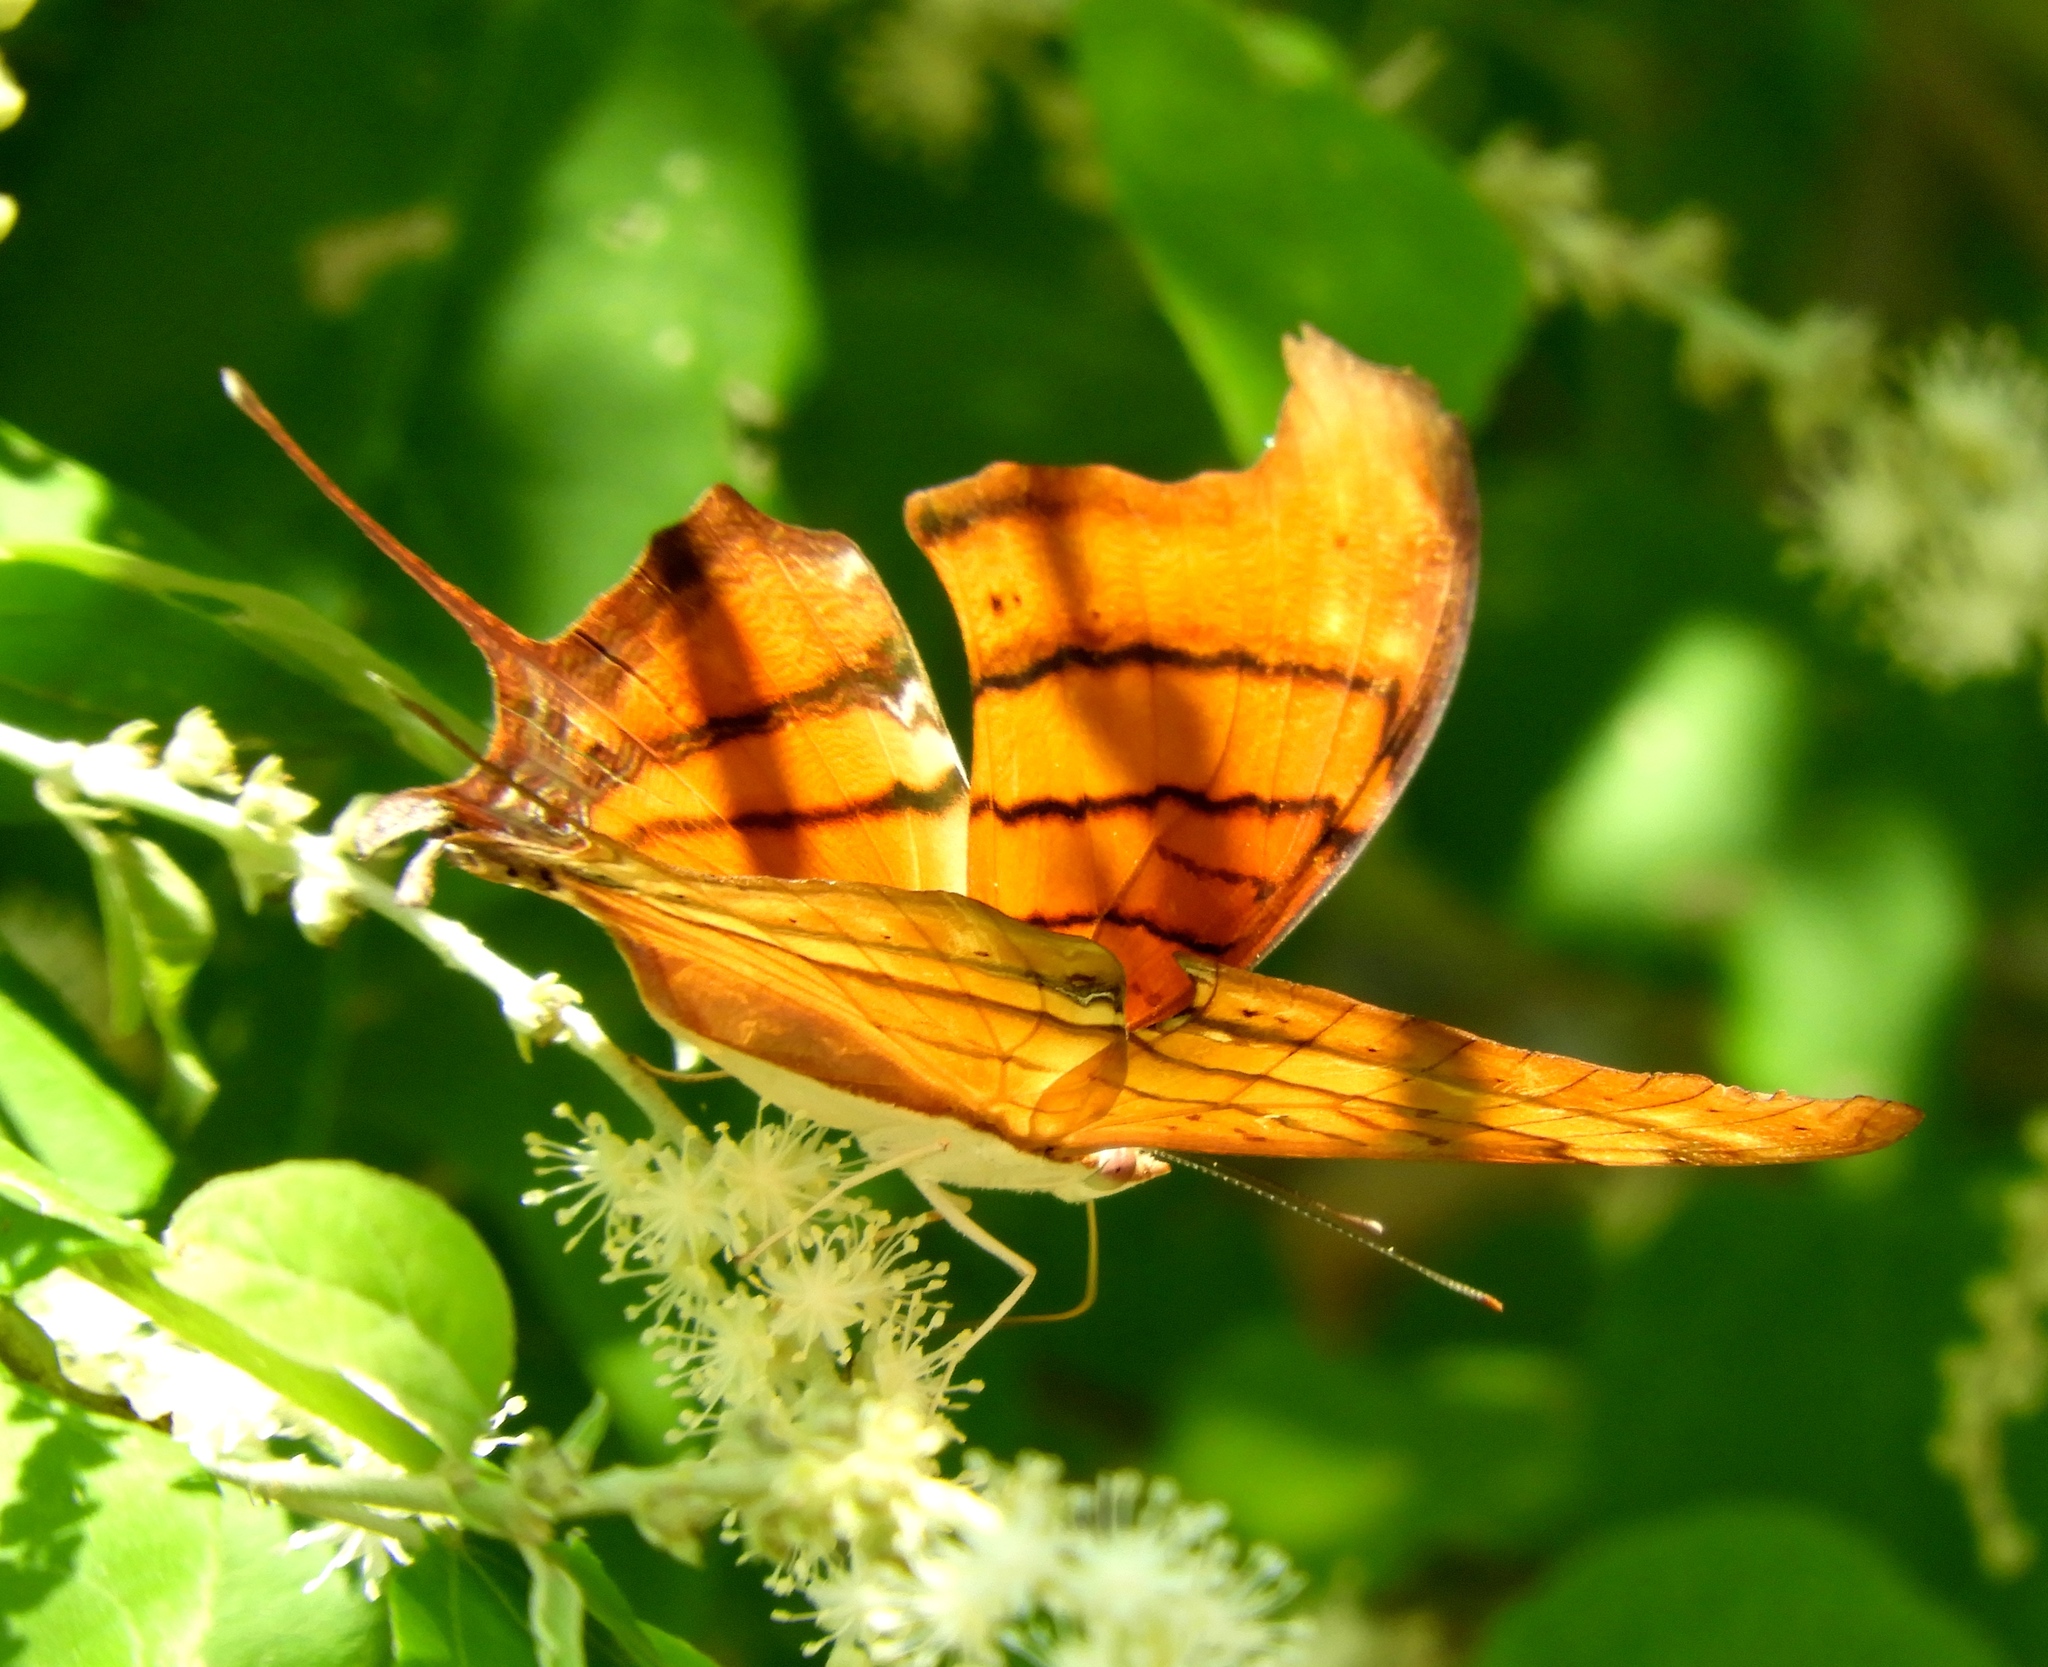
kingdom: Animalia
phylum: Arthropoda
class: Insecta
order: Lepidoptera
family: Nymphalidae
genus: Marpesia
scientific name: Marpesia petreus
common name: Red dagger wing
